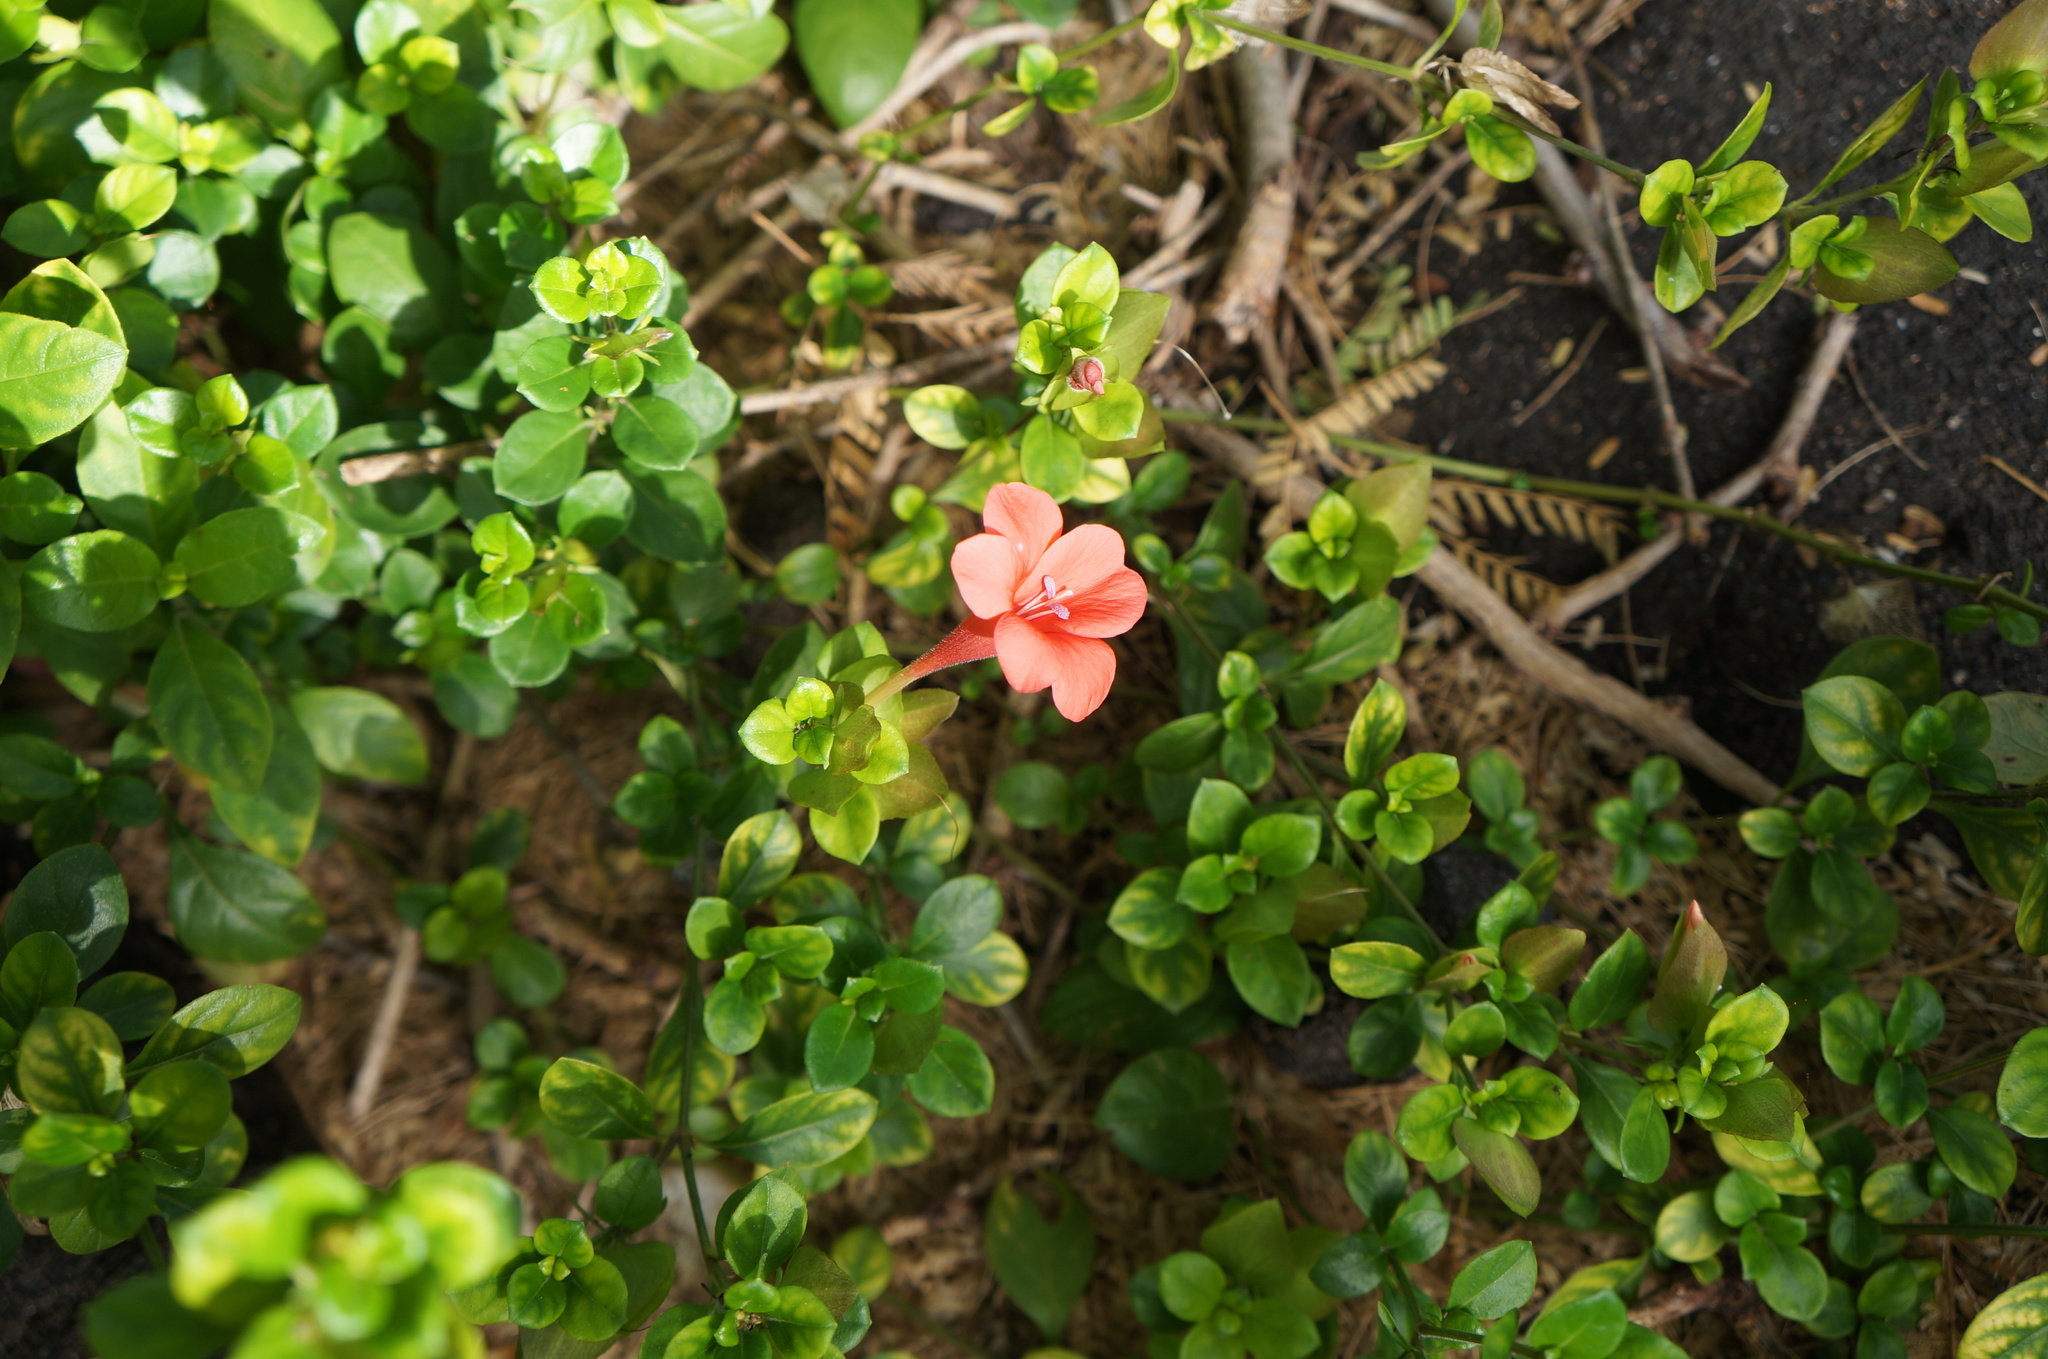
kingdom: Plantae
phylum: Tracheophyta
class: Magnoliopsida
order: Lamiales
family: Acanthaceae
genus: Barleria
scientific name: Barleria repens
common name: Pink-ruellia
